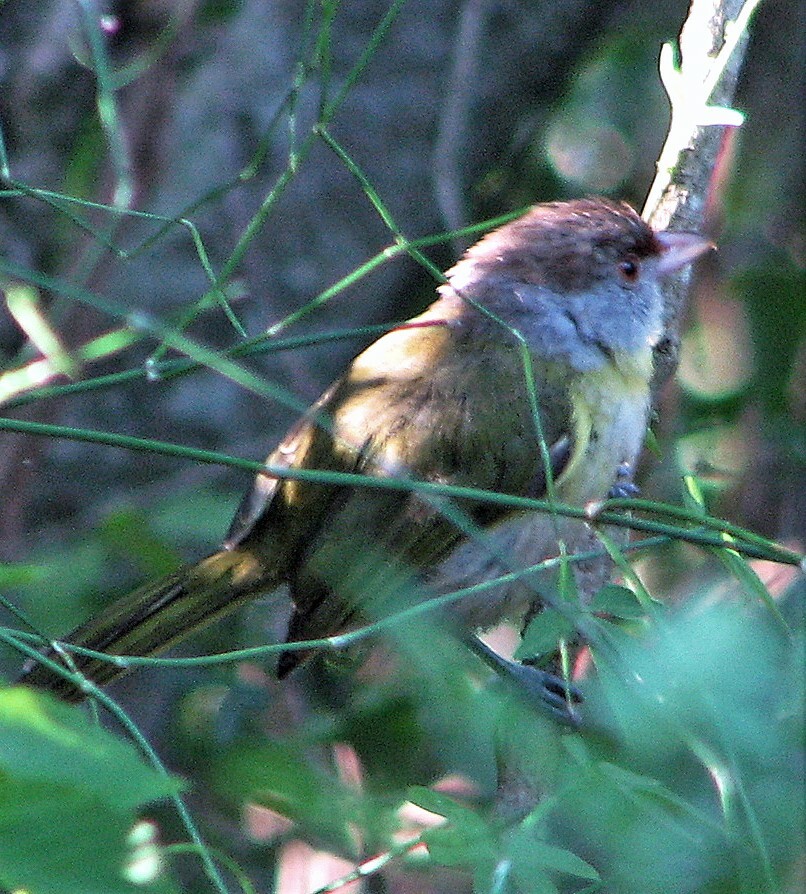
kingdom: Animalia
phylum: Chordata
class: Aves
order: Passeriformes
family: Vireonidae
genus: Cyclarhis
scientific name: Cyclarhis gujanensis
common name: Rufous-browed peppershrike
